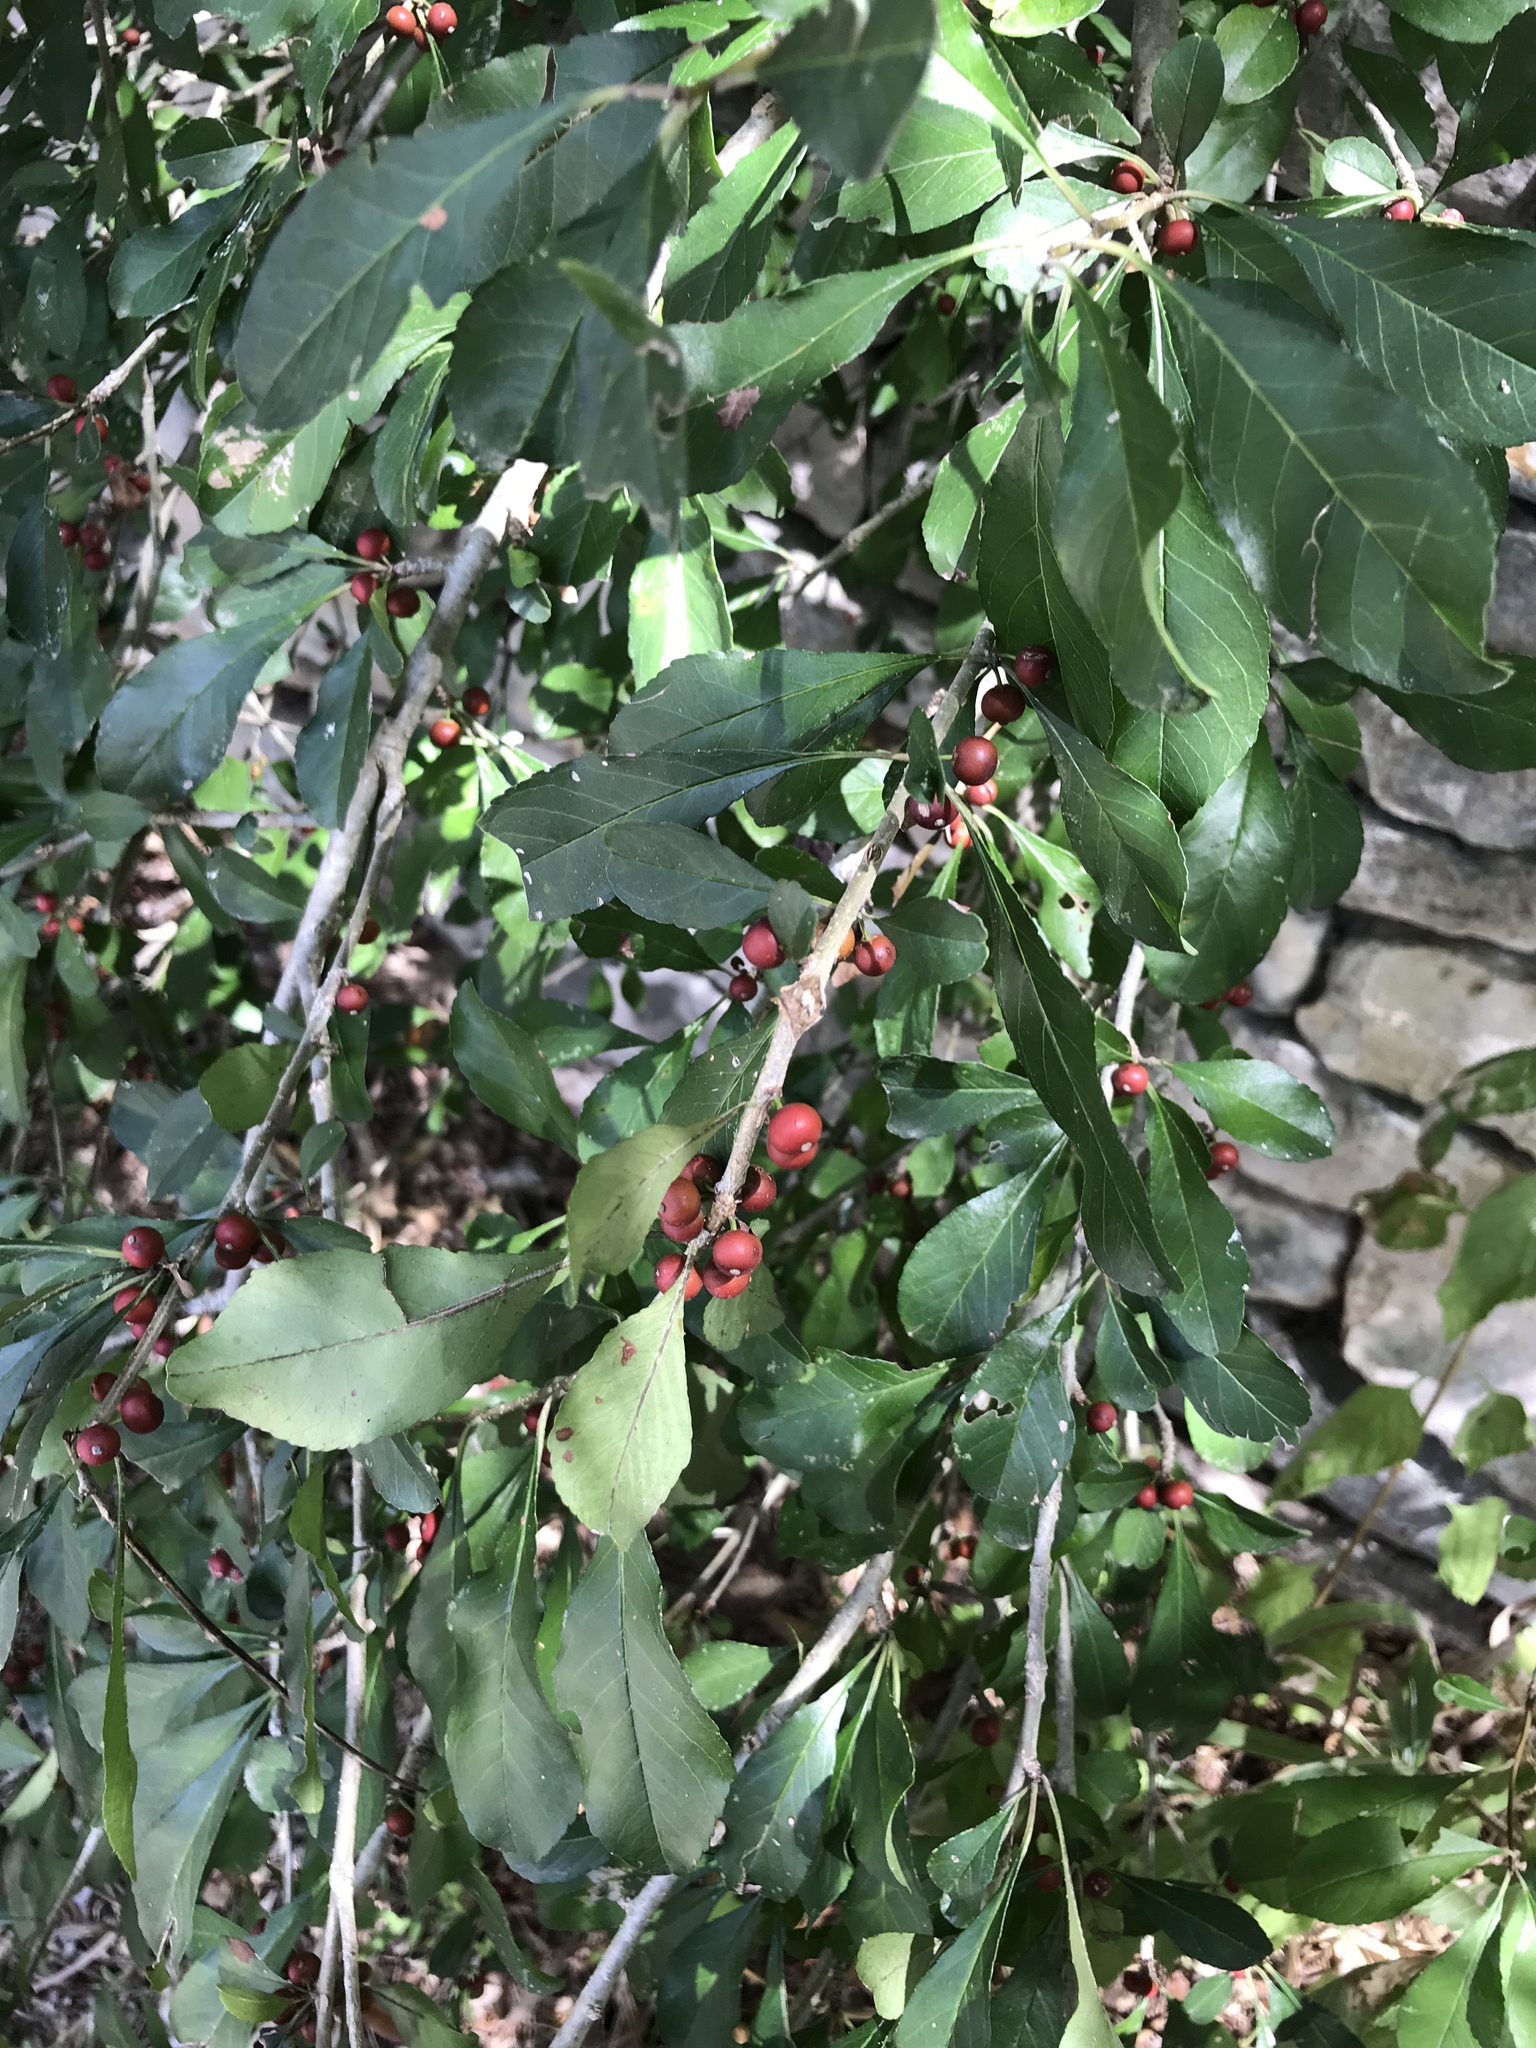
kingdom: Plantae
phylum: Tracheophyta
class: Magnoliopsida
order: Aquifoliales
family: Aquifoliaceae
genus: Ilex
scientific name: Ilex decidua
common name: Possum-haw
